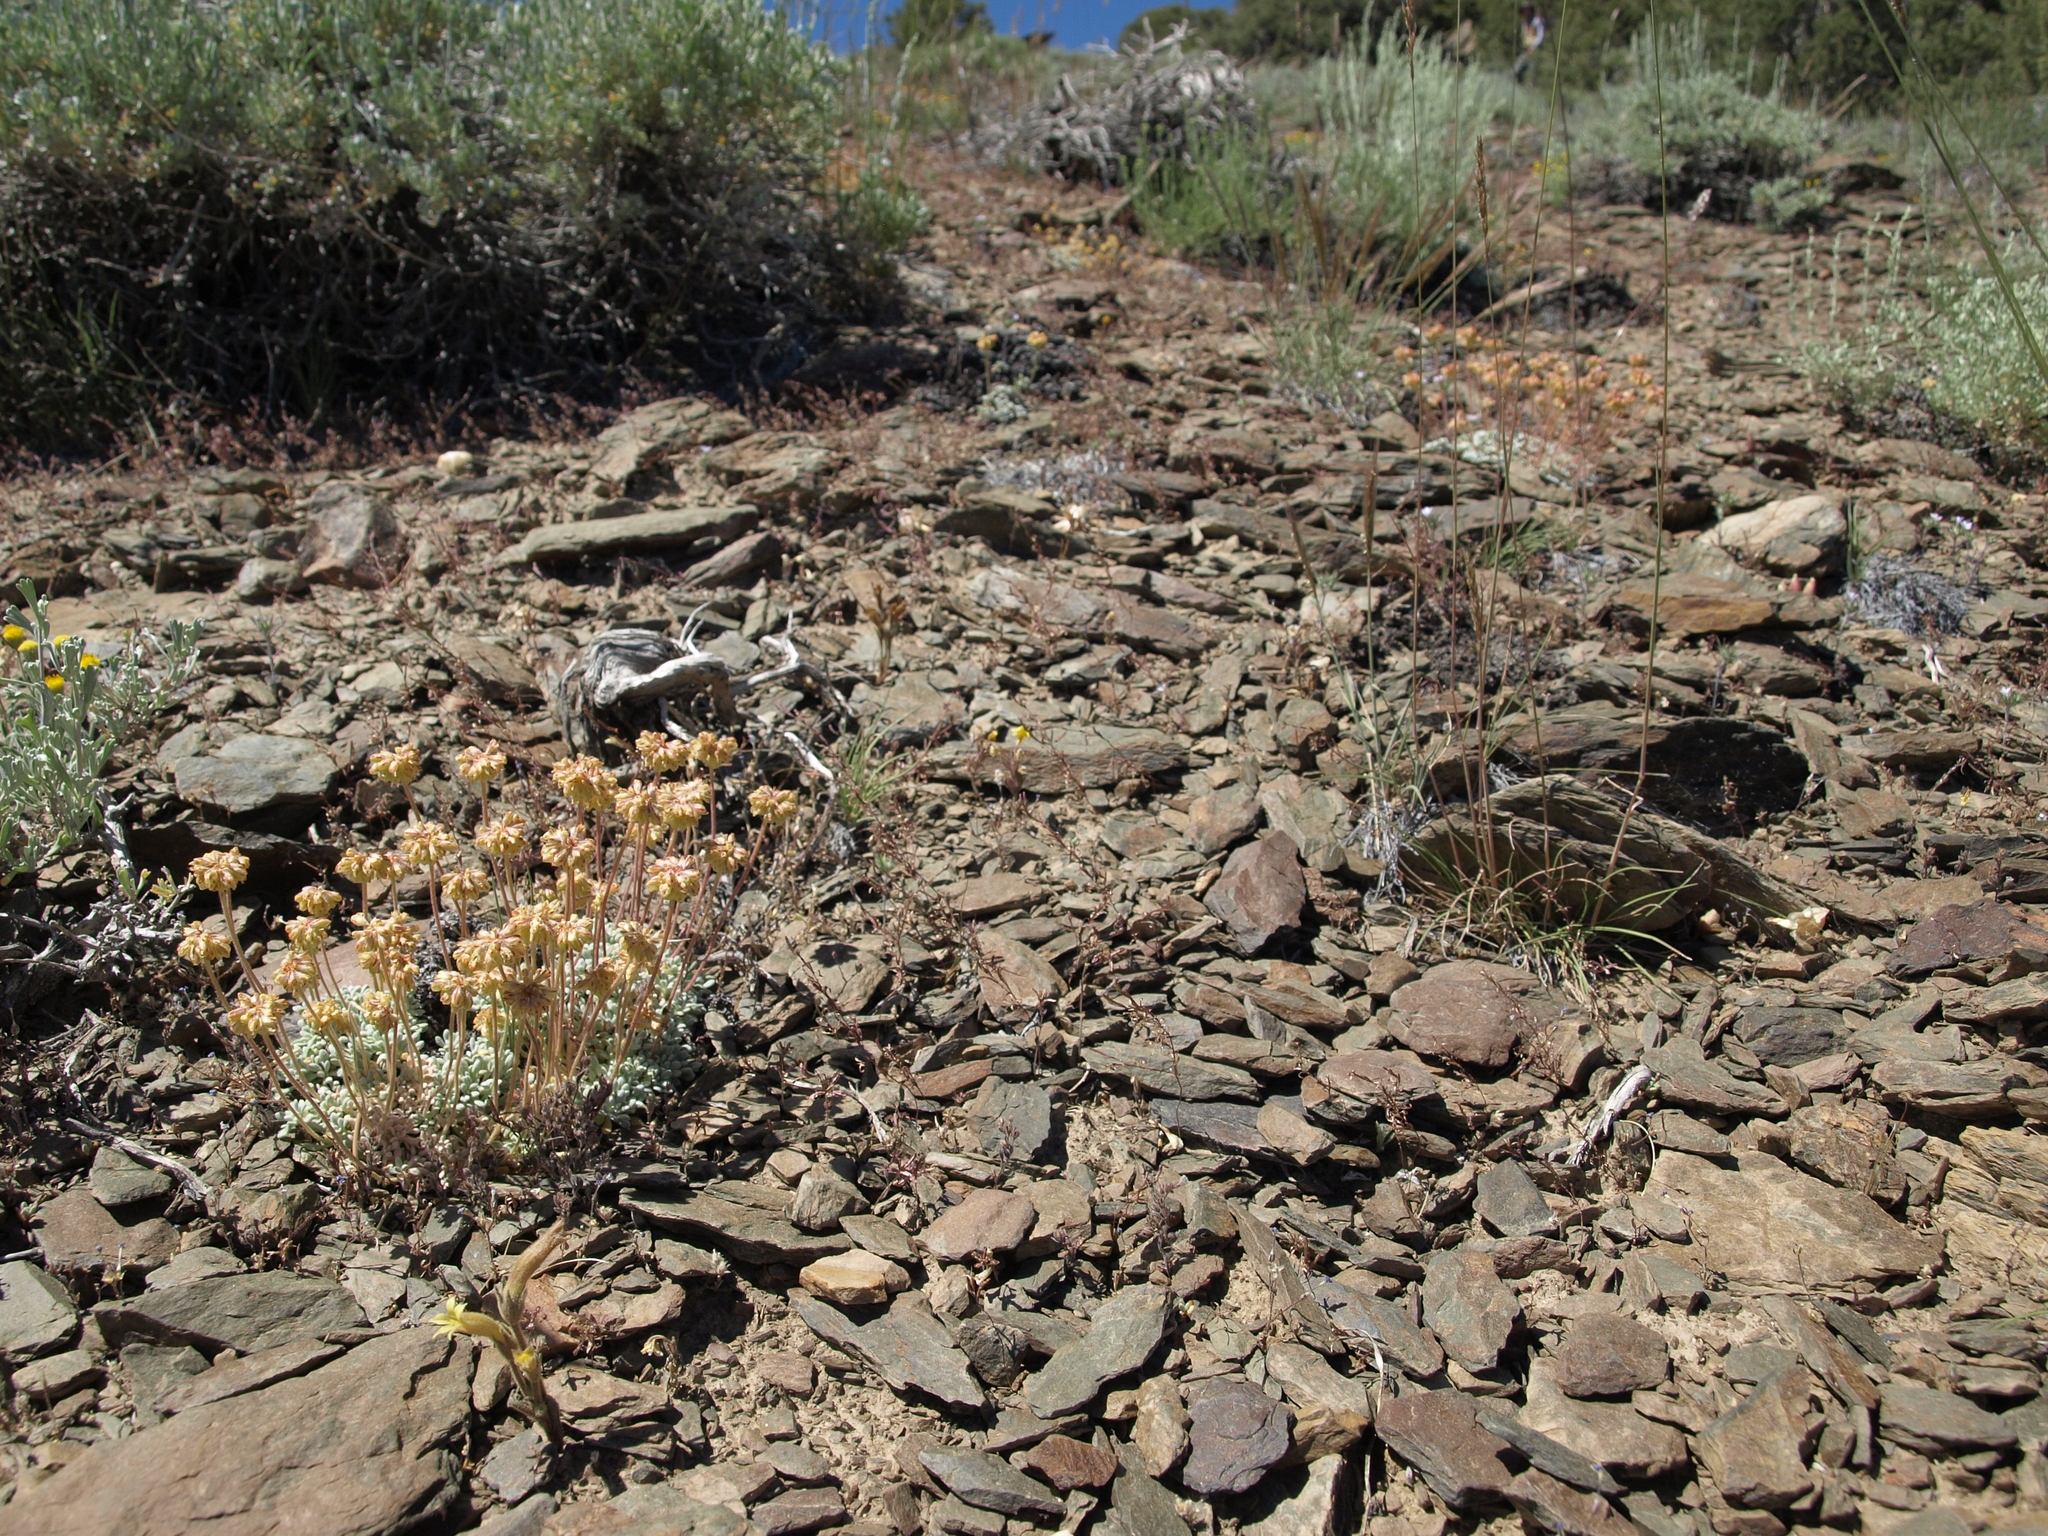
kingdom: Plantae
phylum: Tracheophyta
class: Magnoliopsida
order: Caryophyllales
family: Polygonaceae
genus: Eriogonum
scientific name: Eriogonum caespitosum
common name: Matted wild buckwheat
